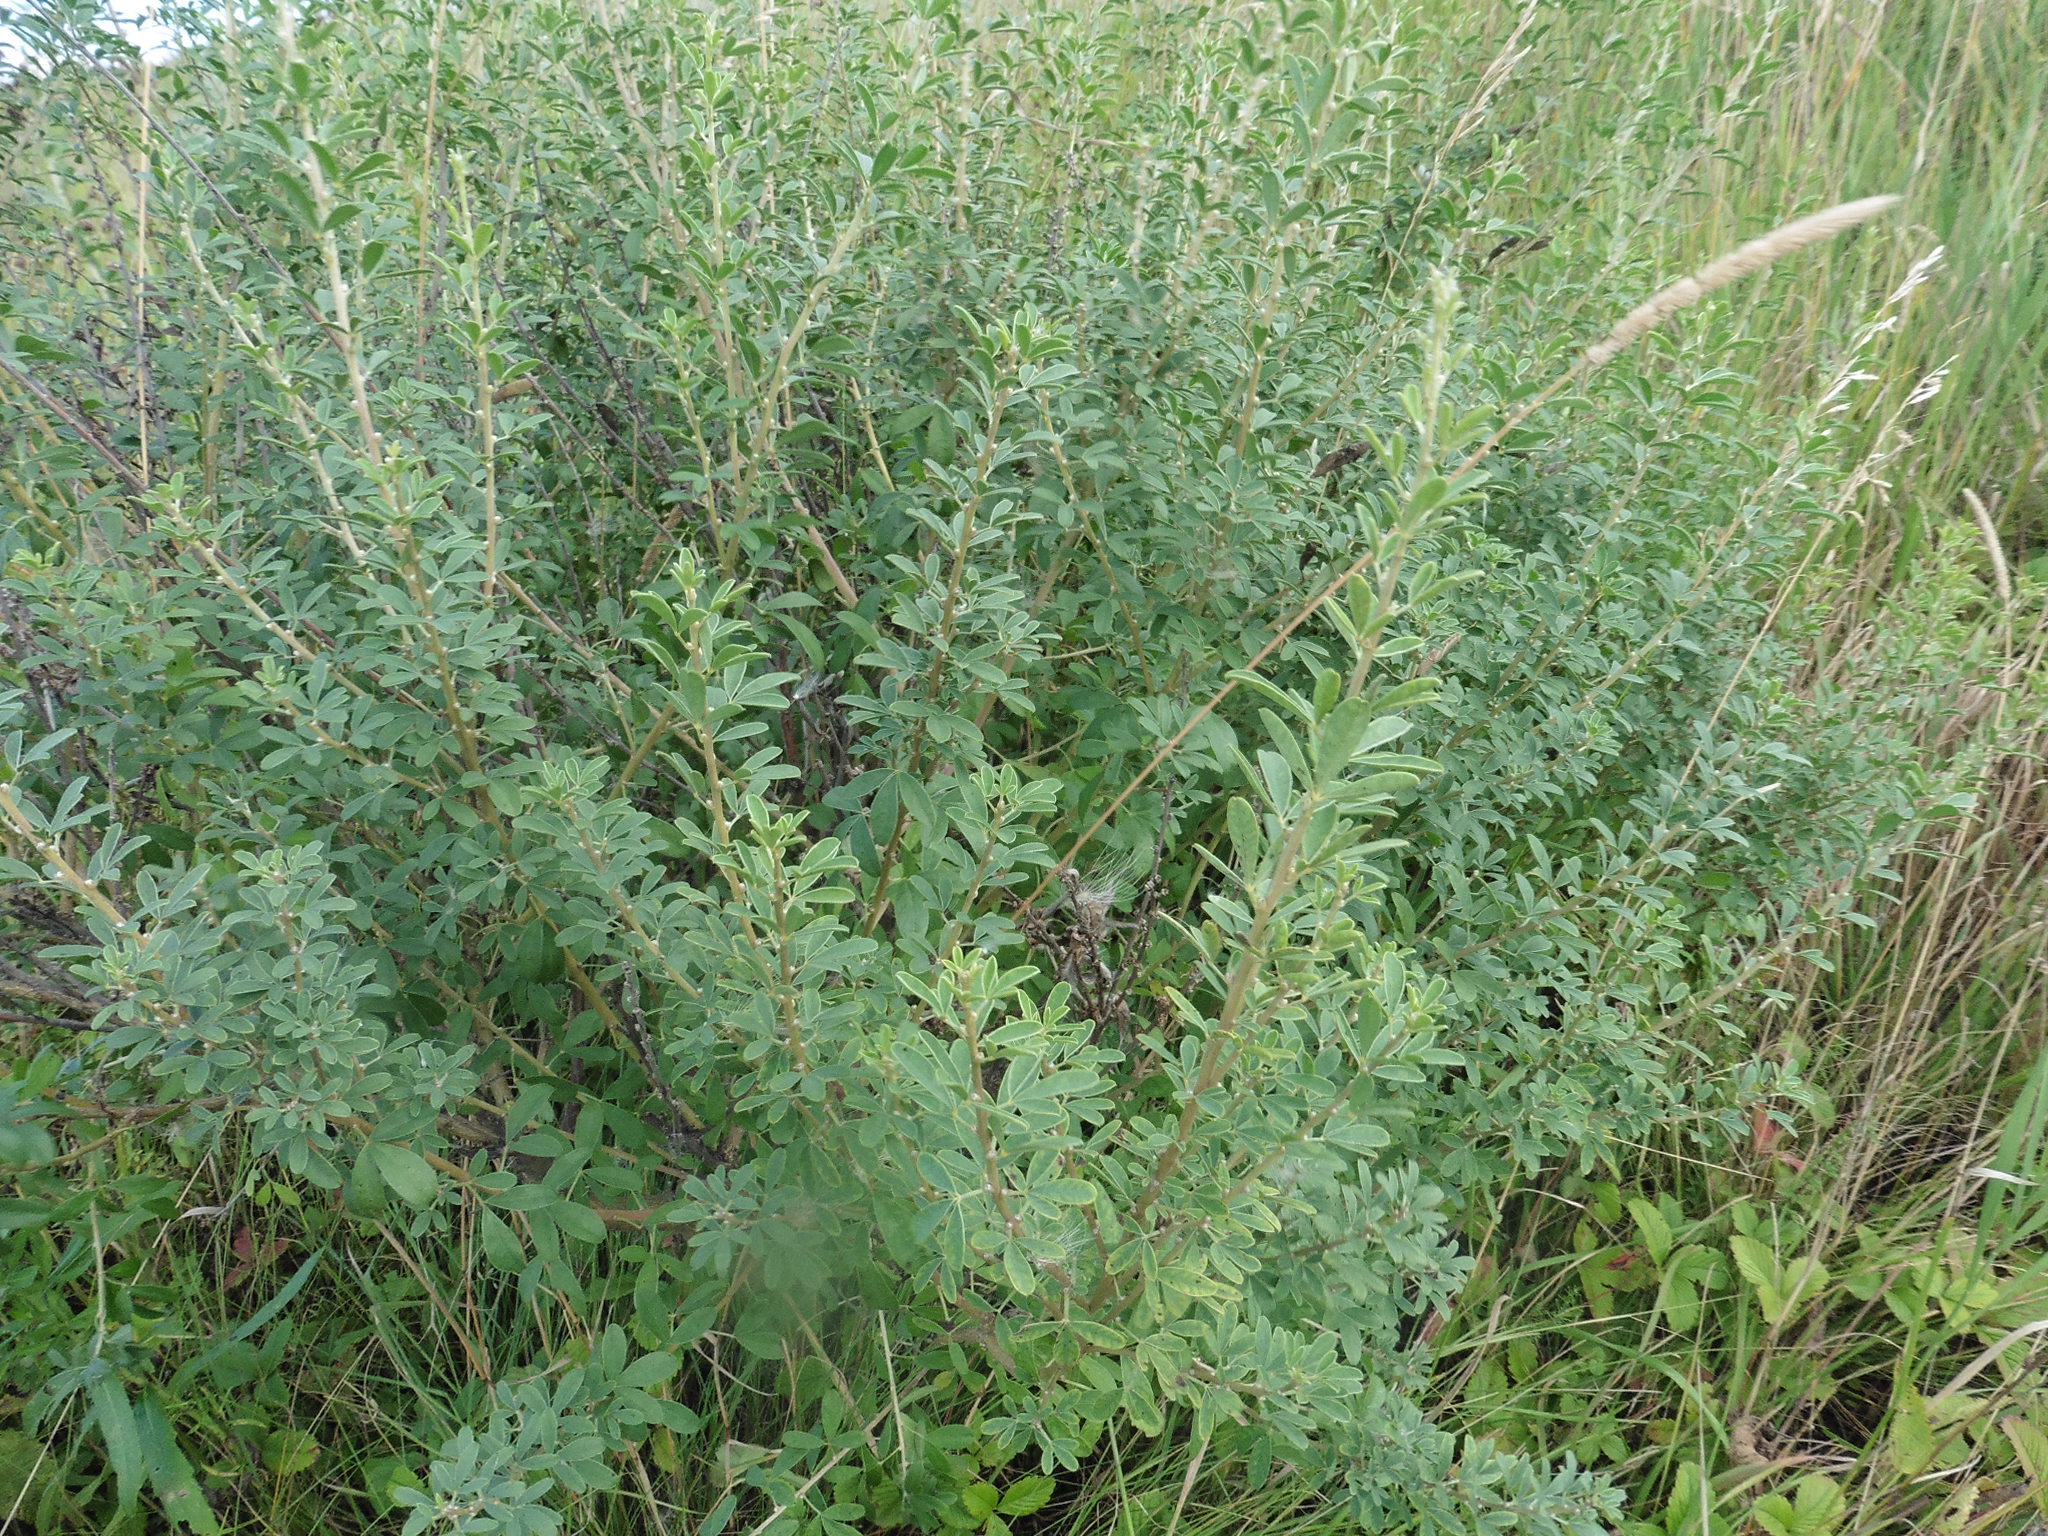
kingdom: Plantae
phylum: Tracheophyta
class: Magnoliopsida
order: Fabales
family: Fabaceae
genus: Chamaecytisus
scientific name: Chamaecytisus ruthenicus
